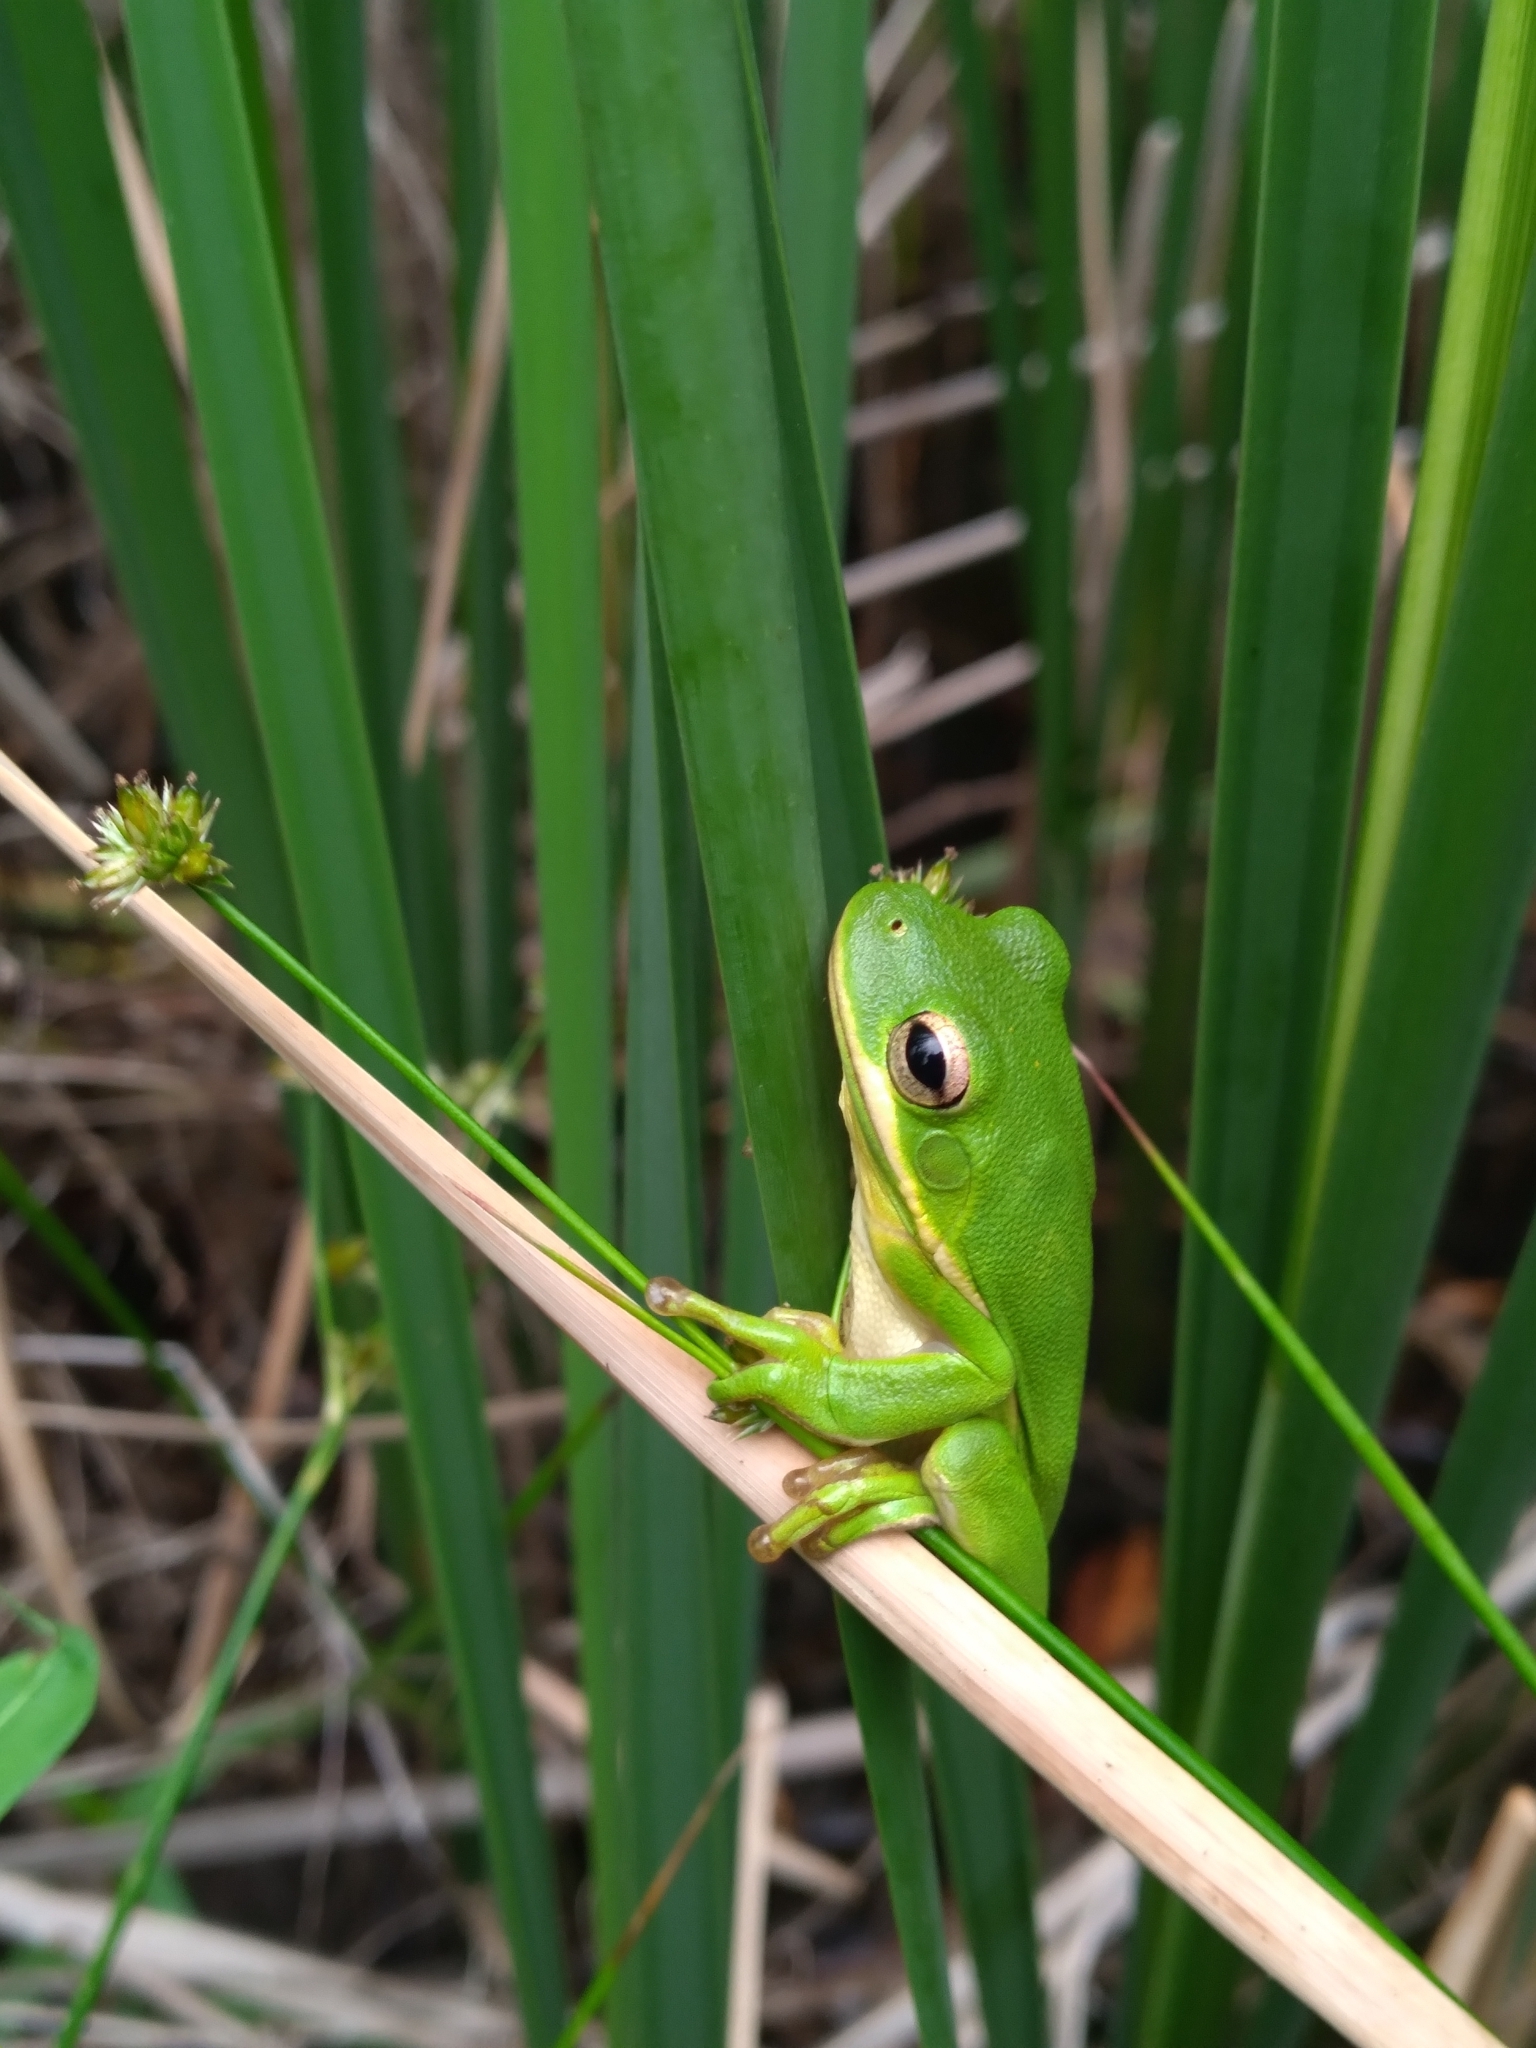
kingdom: Animalia
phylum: Chordata
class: Amphibia
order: Anura
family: Hylidae
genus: Dryophytes
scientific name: Dryophytes cinereus
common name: Green treefrog
